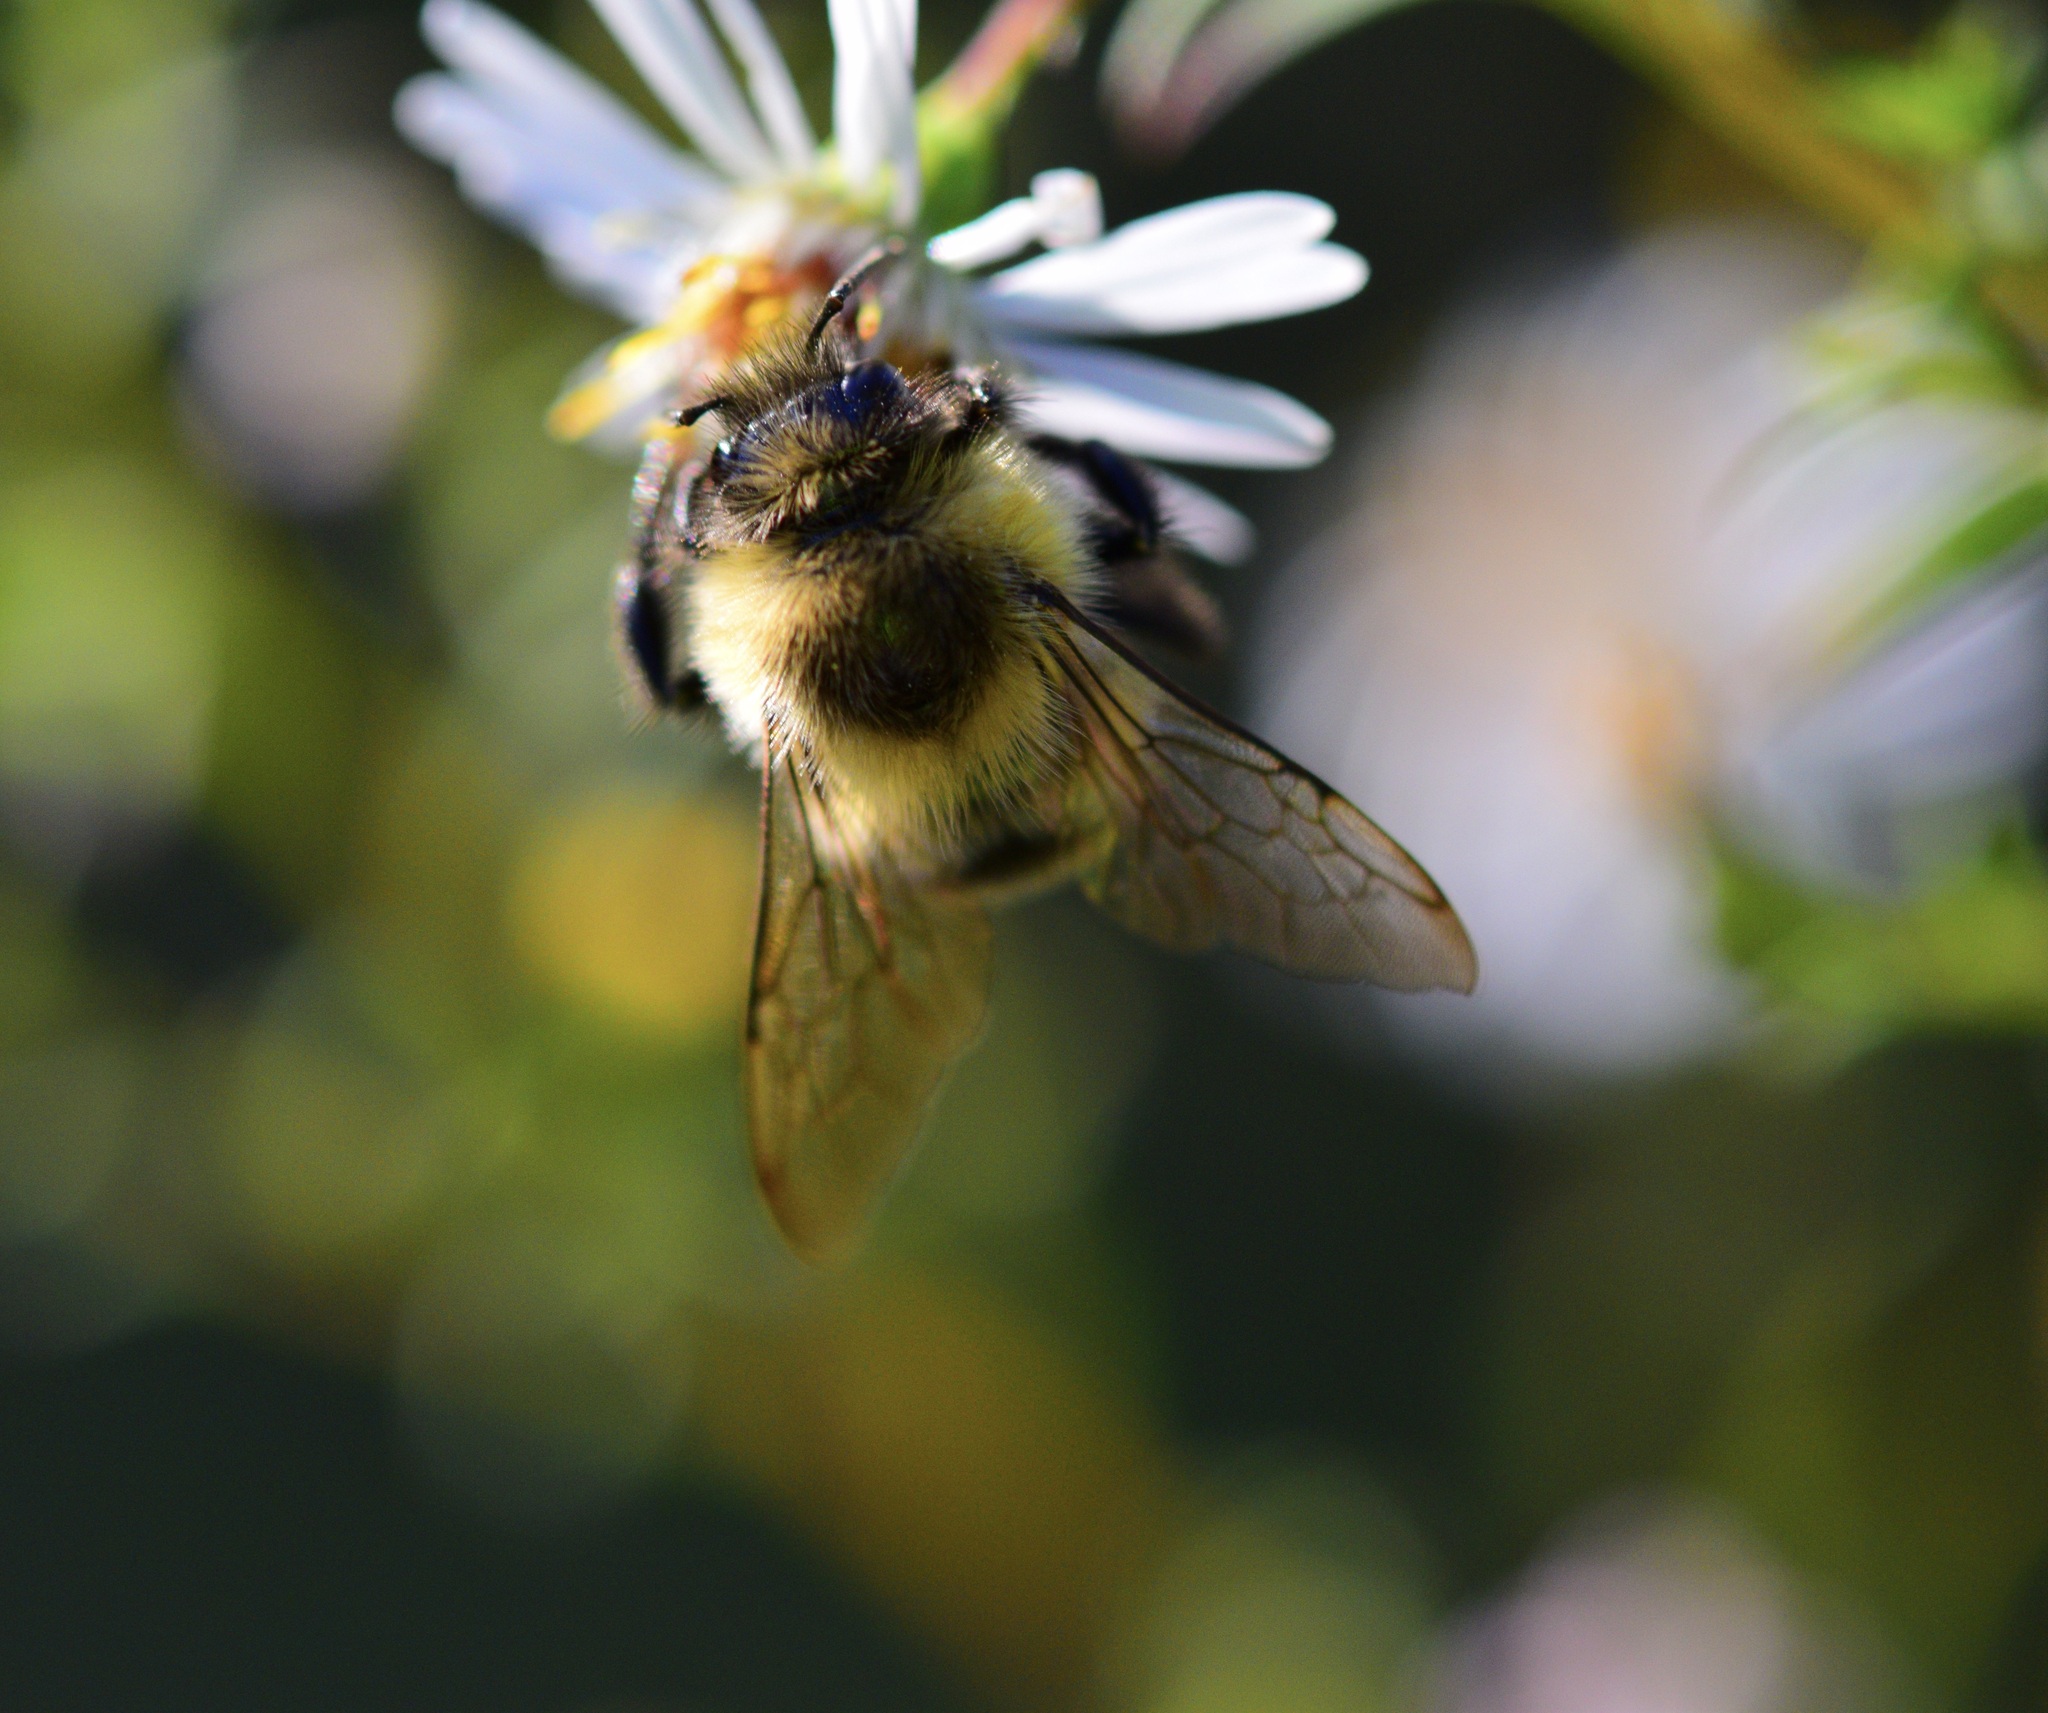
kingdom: Animalia
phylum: Arthropoda
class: Insecta
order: Hymenoptera
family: Apidae
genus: Bombus
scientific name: Bombus impatiens
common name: Common eastern bumble bee
